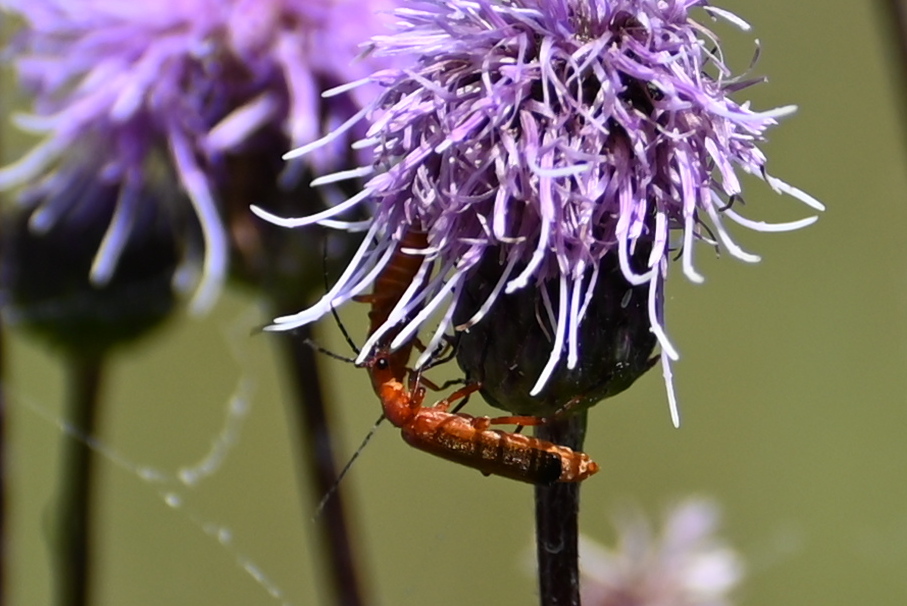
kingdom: Animalia
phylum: Arthropoda
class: Insecta
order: Coleoptera
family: Cantharidae
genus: Rhagonycha
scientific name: Rhagonycha fulva
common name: Common red soldier beetle
